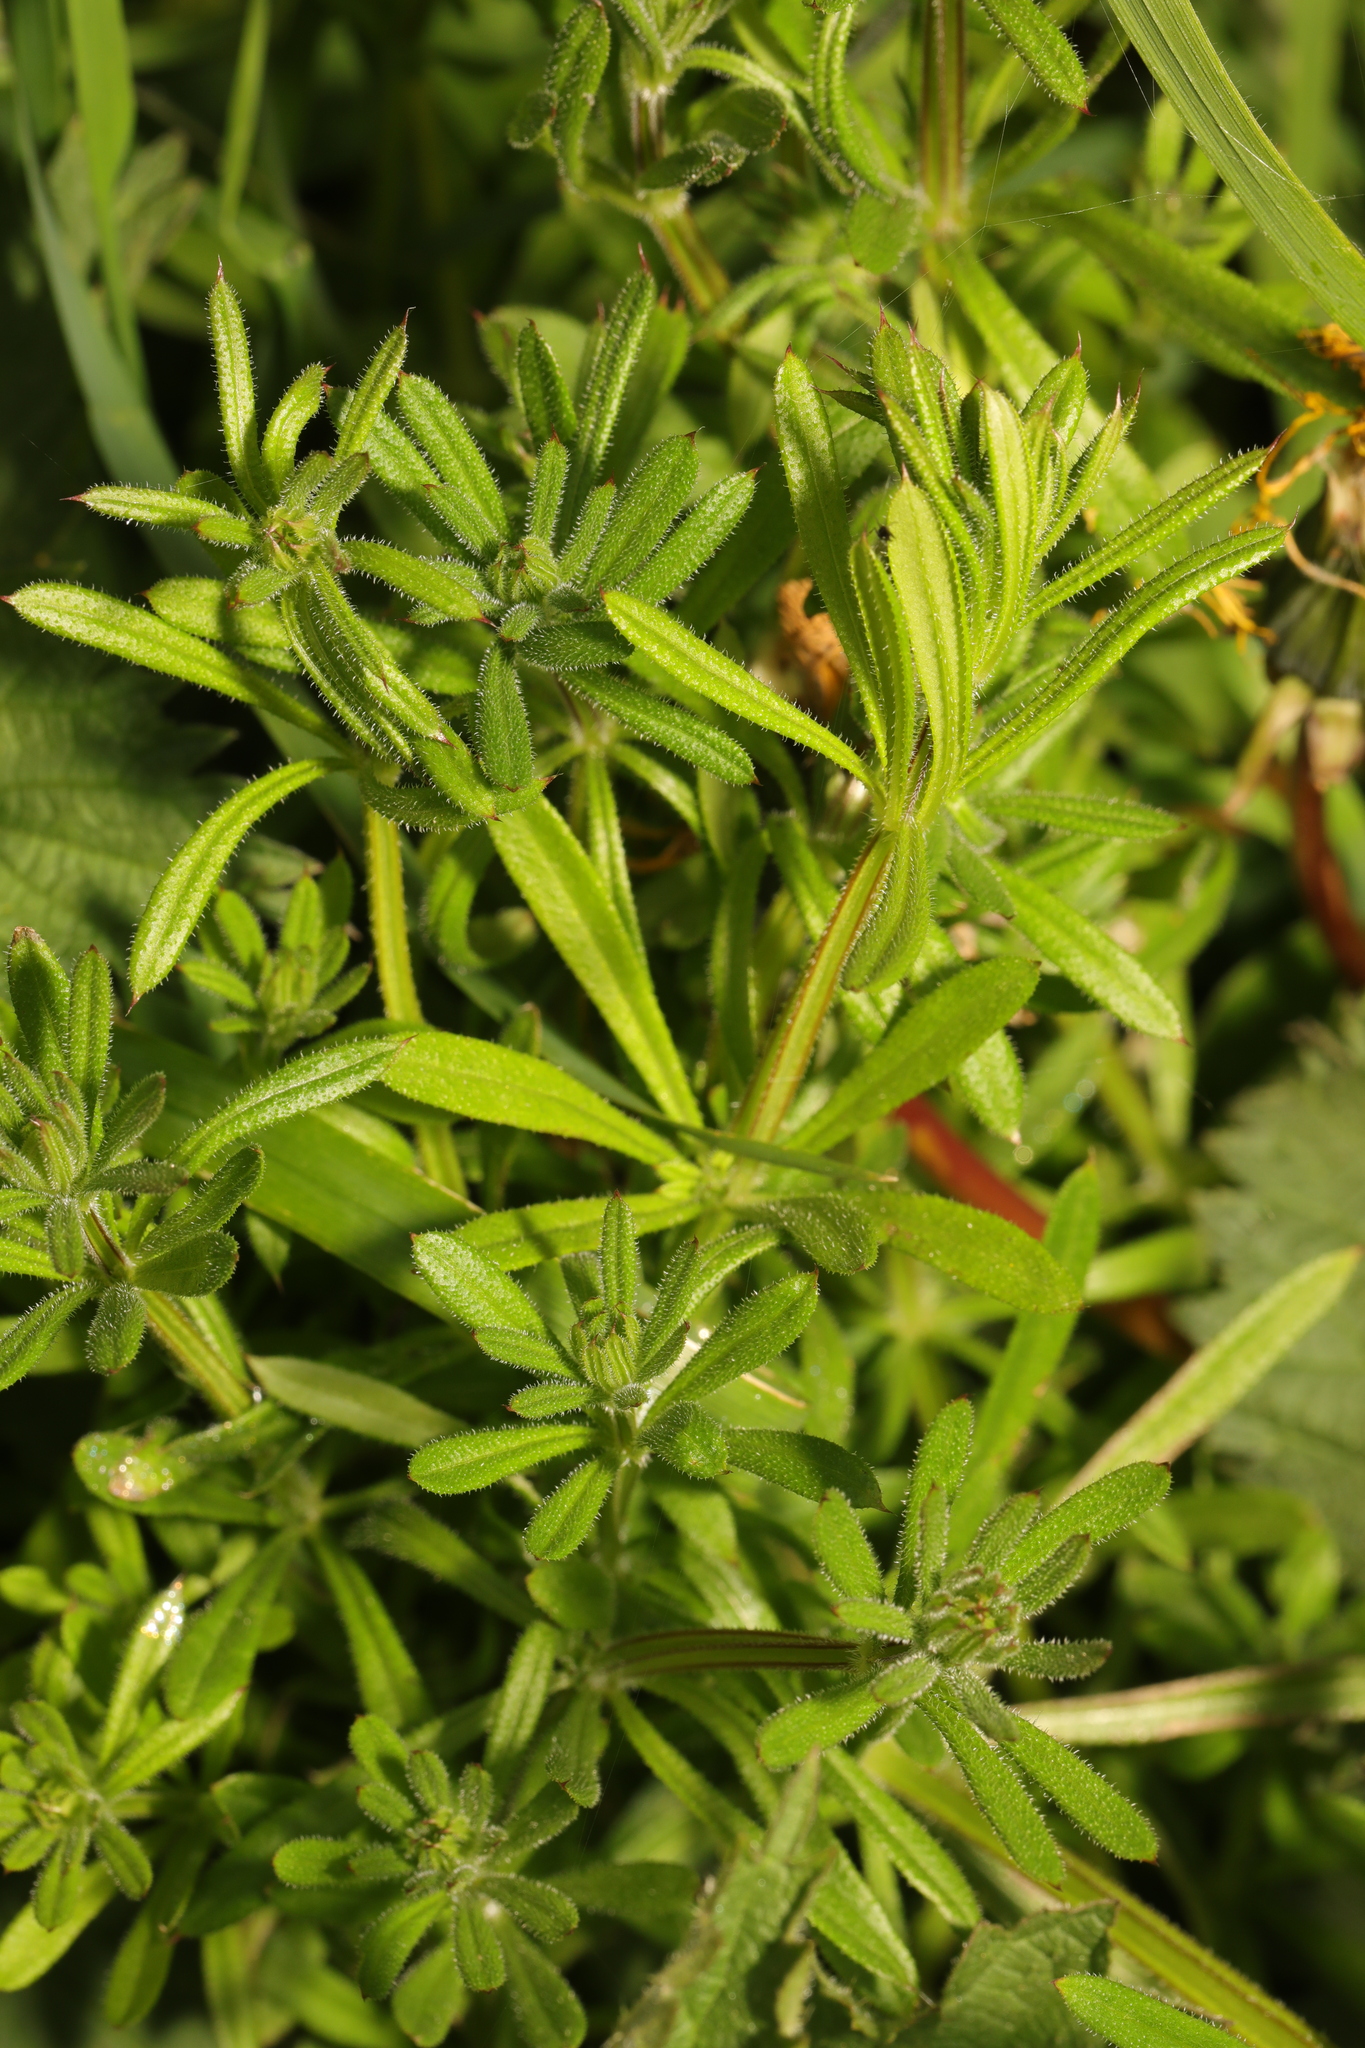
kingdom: Plantae
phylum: Tracheophyta
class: Magnoliopsida
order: Gentianales
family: Rubiaceae
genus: Galium
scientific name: Galium aparine
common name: Cleavers
